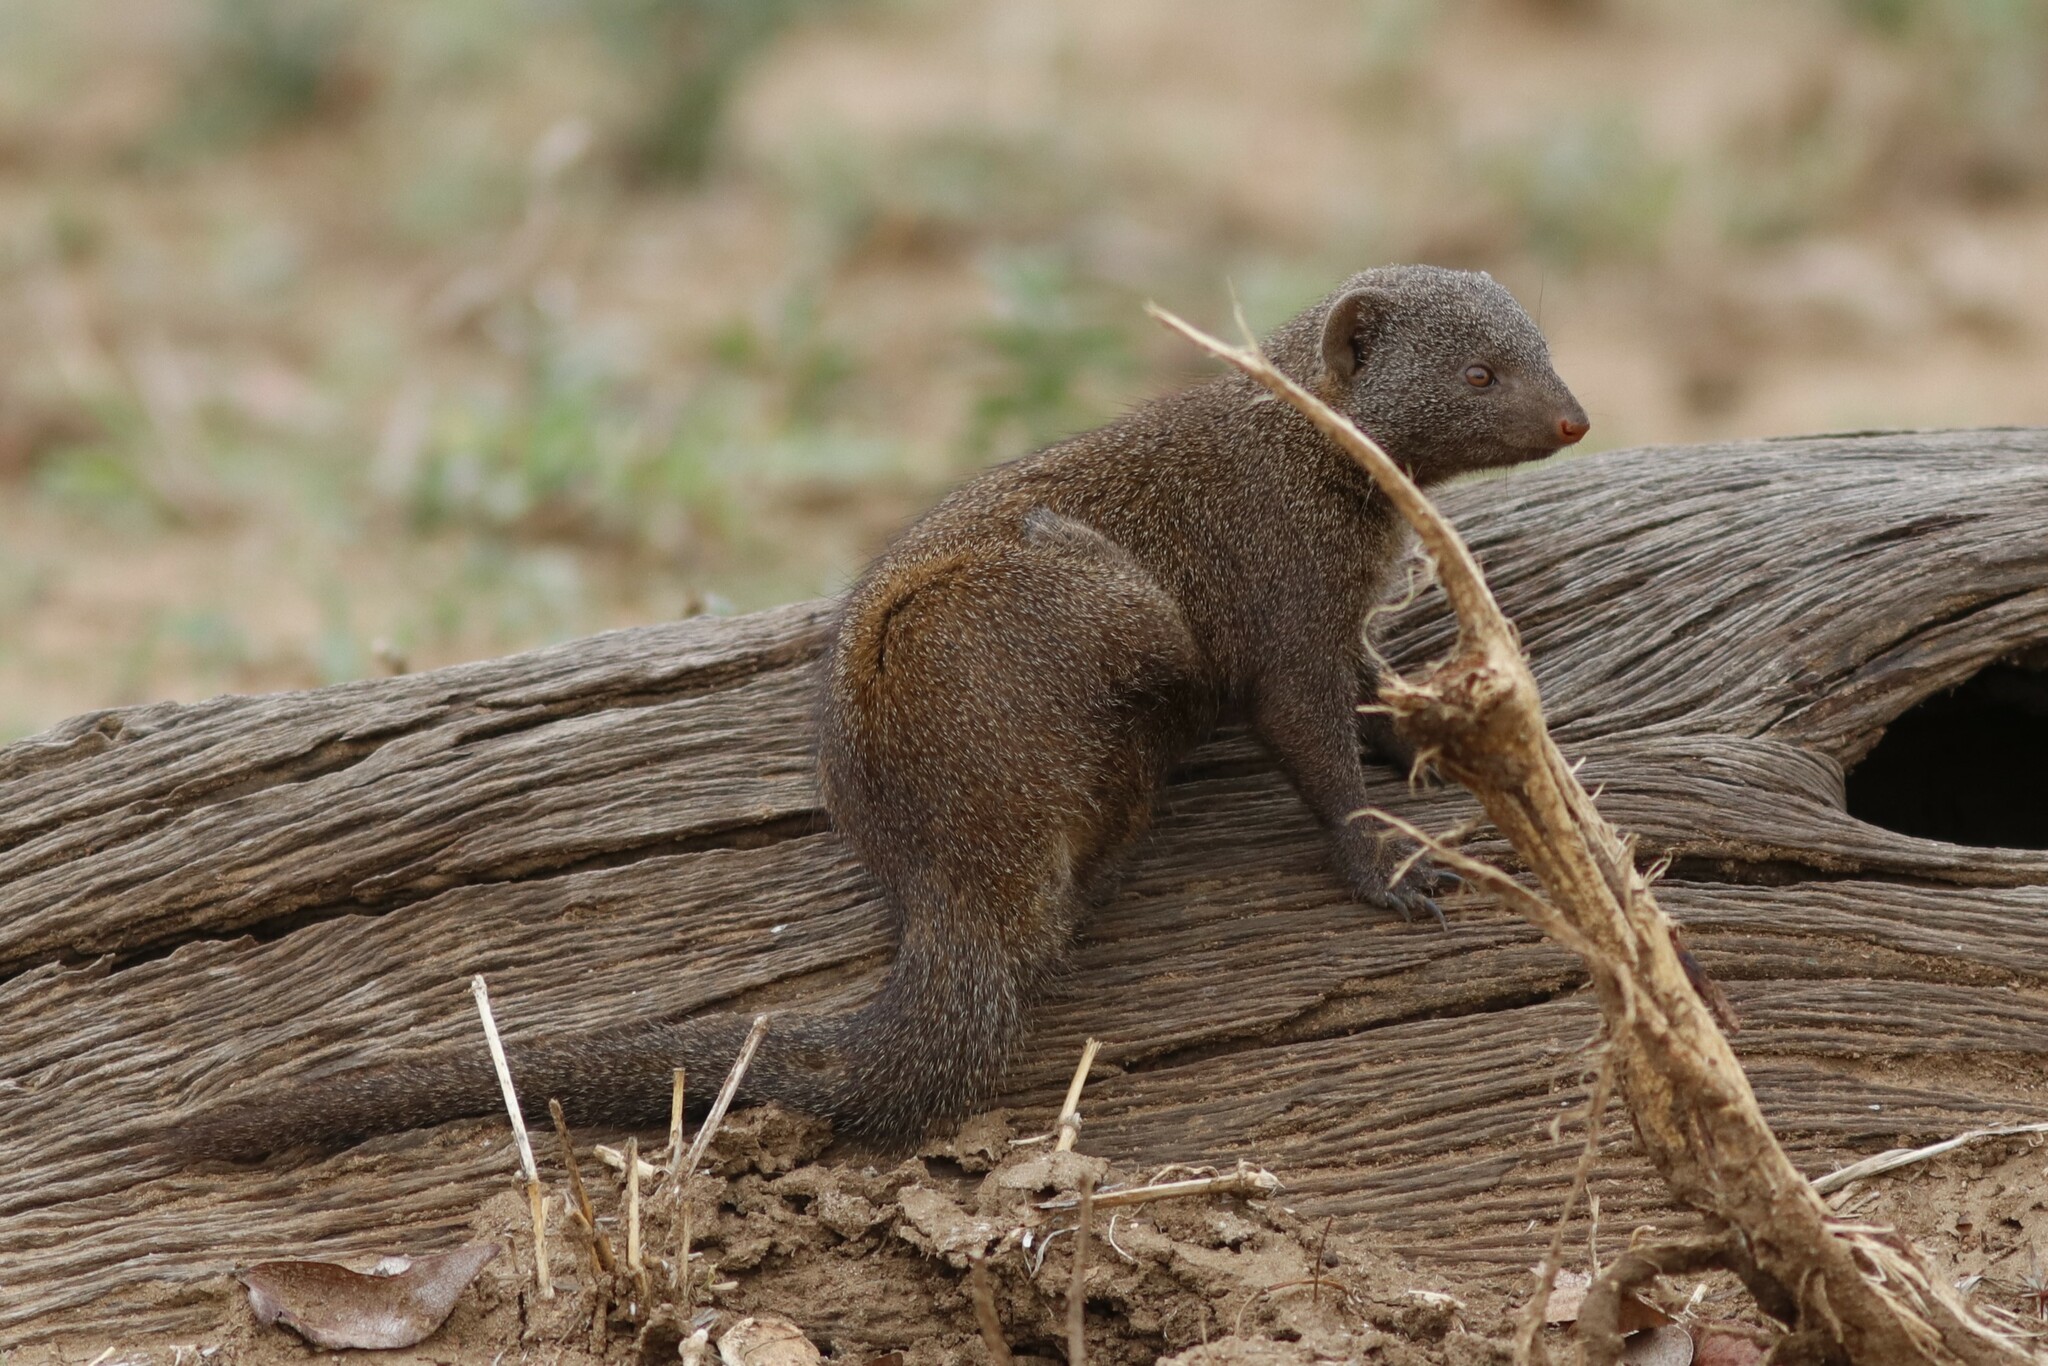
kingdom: Animalia
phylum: Chordata
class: Mammalia
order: Carnivora
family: Herpestidae
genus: Helogale
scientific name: Helogale parvula
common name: Common dwarf mongoose
